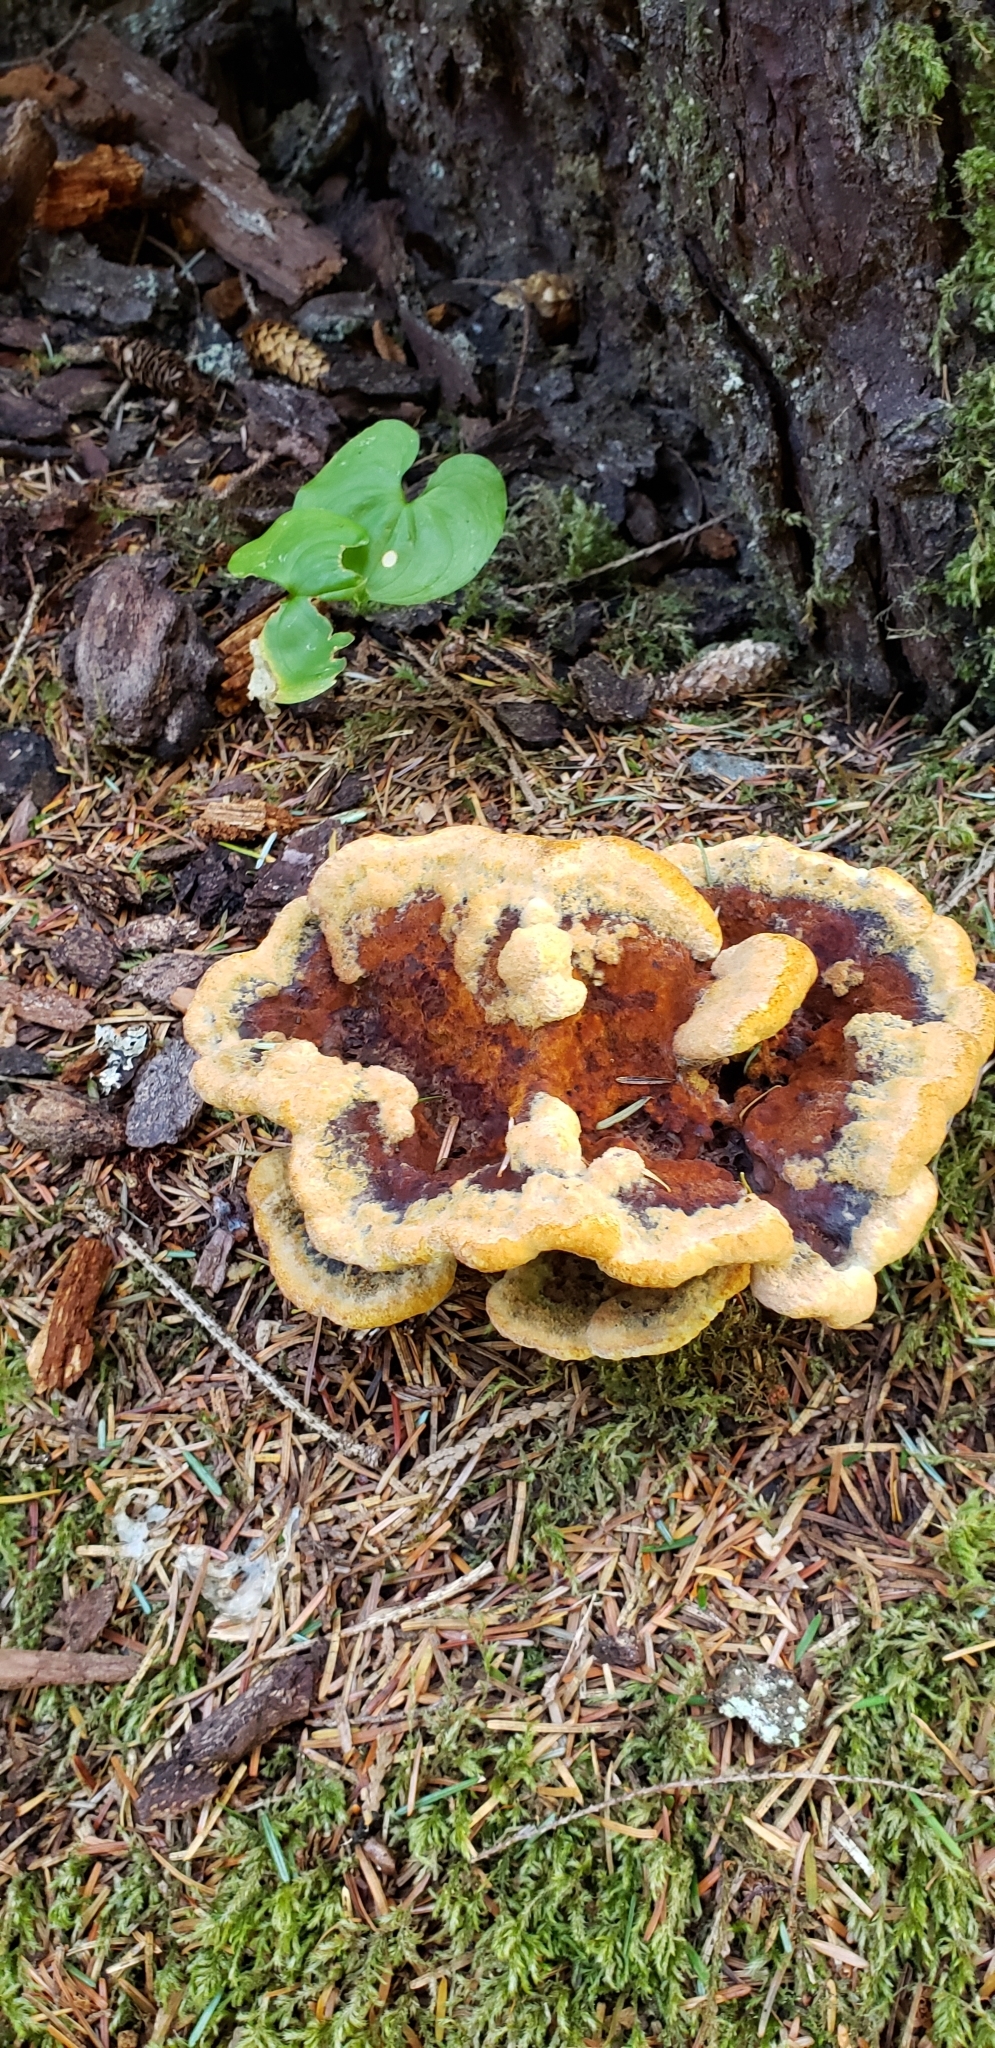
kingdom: Fungi
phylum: Basidiomycota
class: Agaricomycetes
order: Polyporales
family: Laetiporaceae
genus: Phaeolus
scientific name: Phaeolus schweinitzii
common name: Dyer's mazegill
